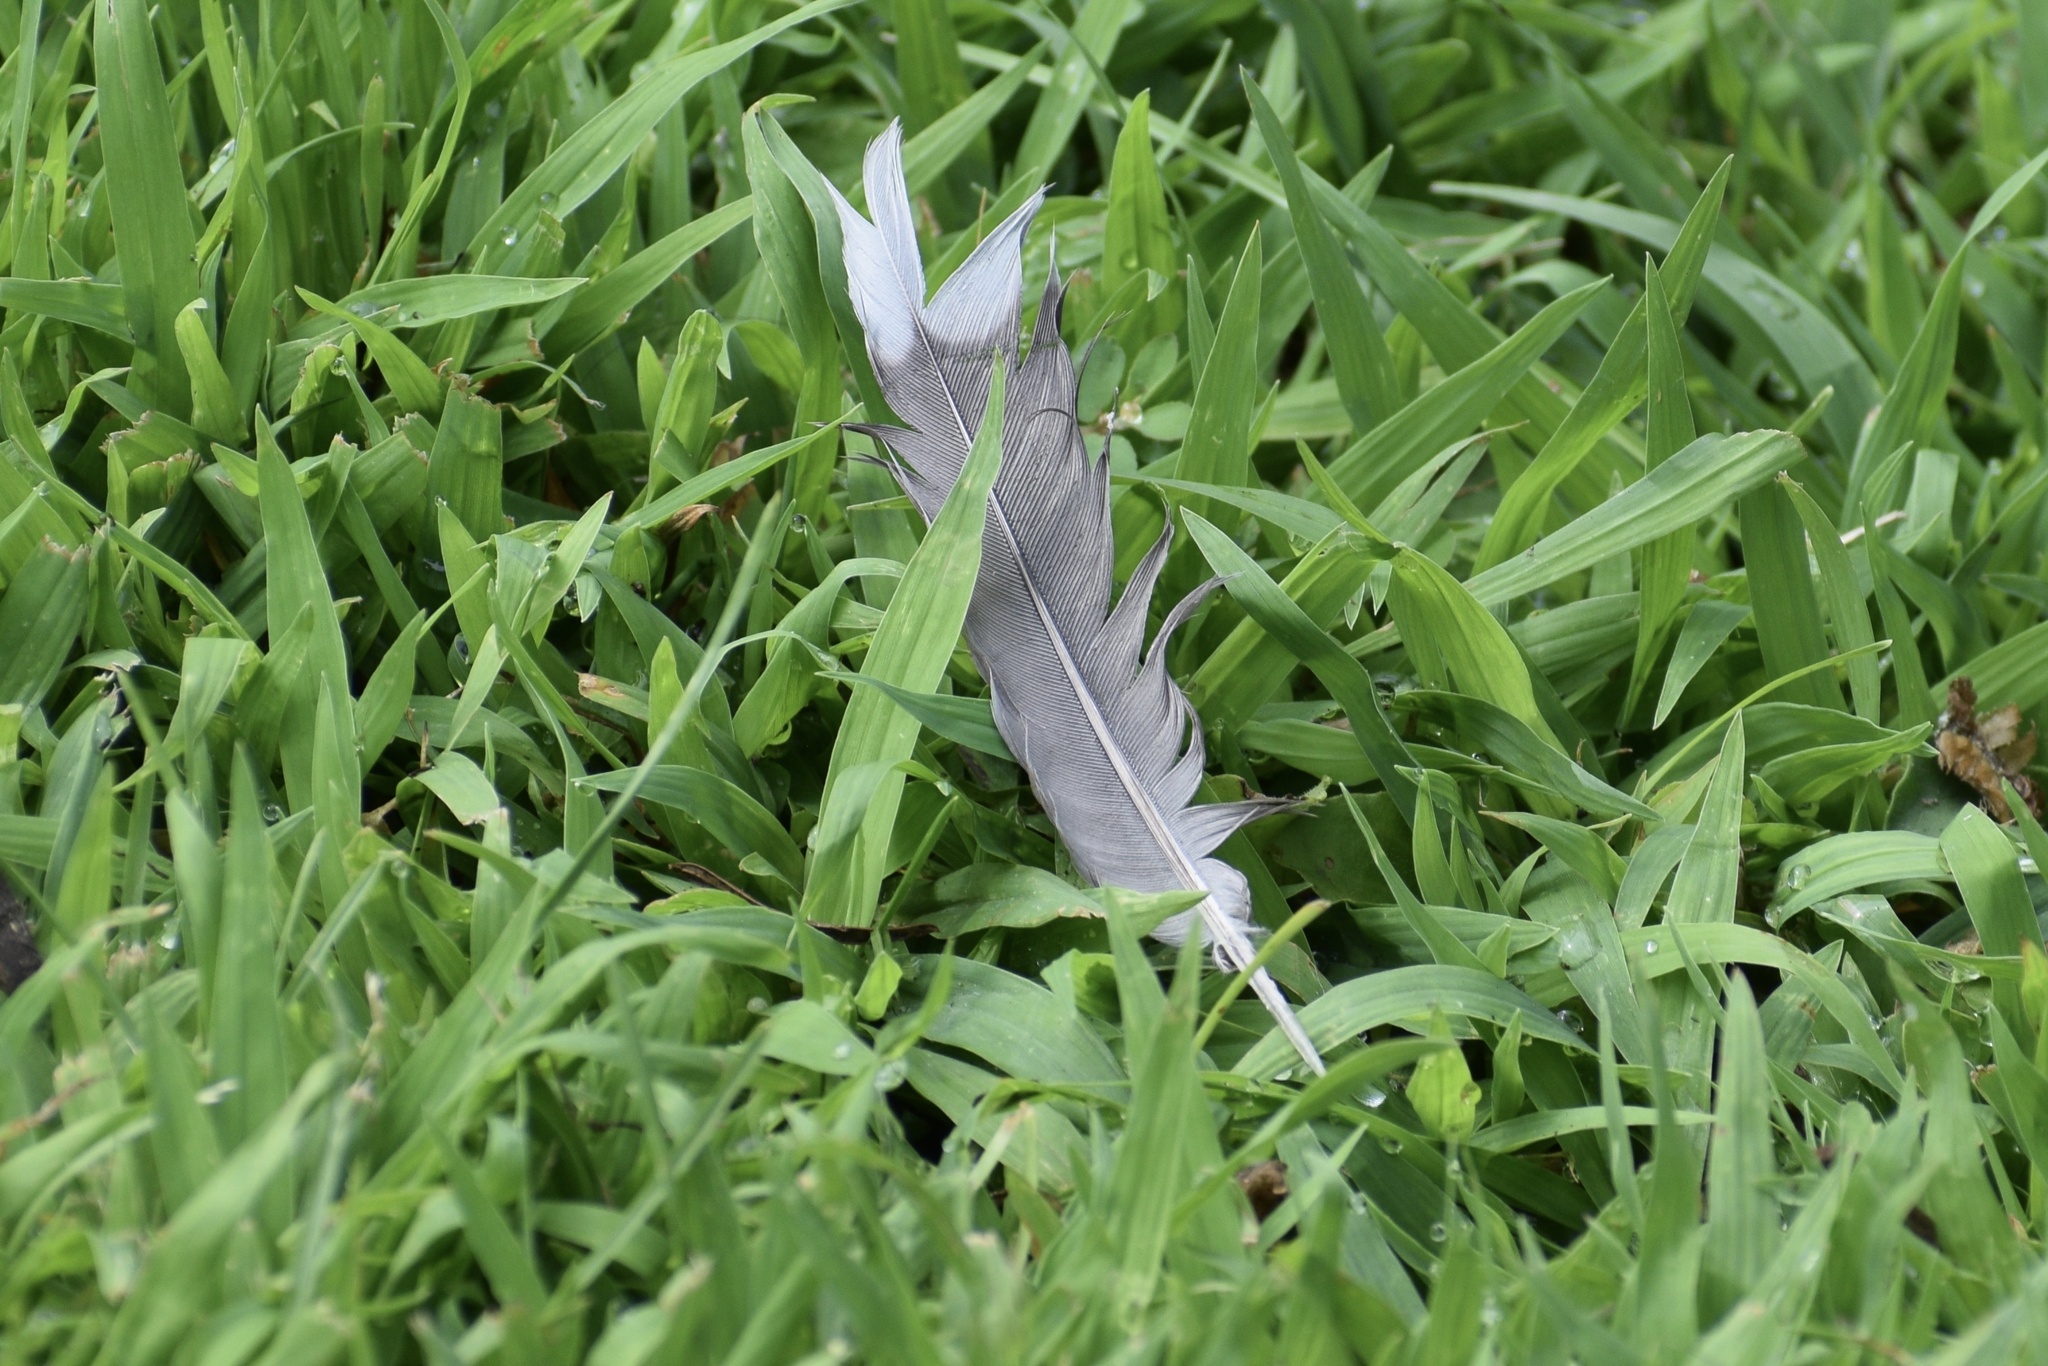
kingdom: Animalia
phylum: Chordata
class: Aves
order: Columbiformes
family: Columbidae
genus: Zenaida
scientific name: Zenaida macroura
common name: Mourning dove
